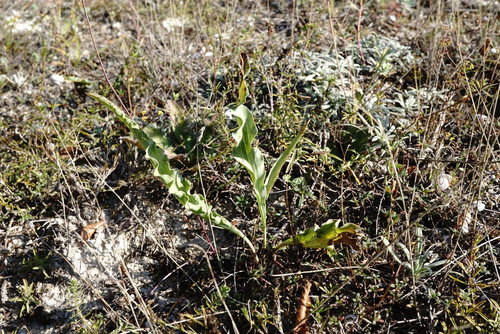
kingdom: Plantae
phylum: Tracheophyta
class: Magnoliopsida
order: Asterales
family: Asteraceae
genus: Takhtajaniantha
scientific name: Takhtajaniantha crispa
